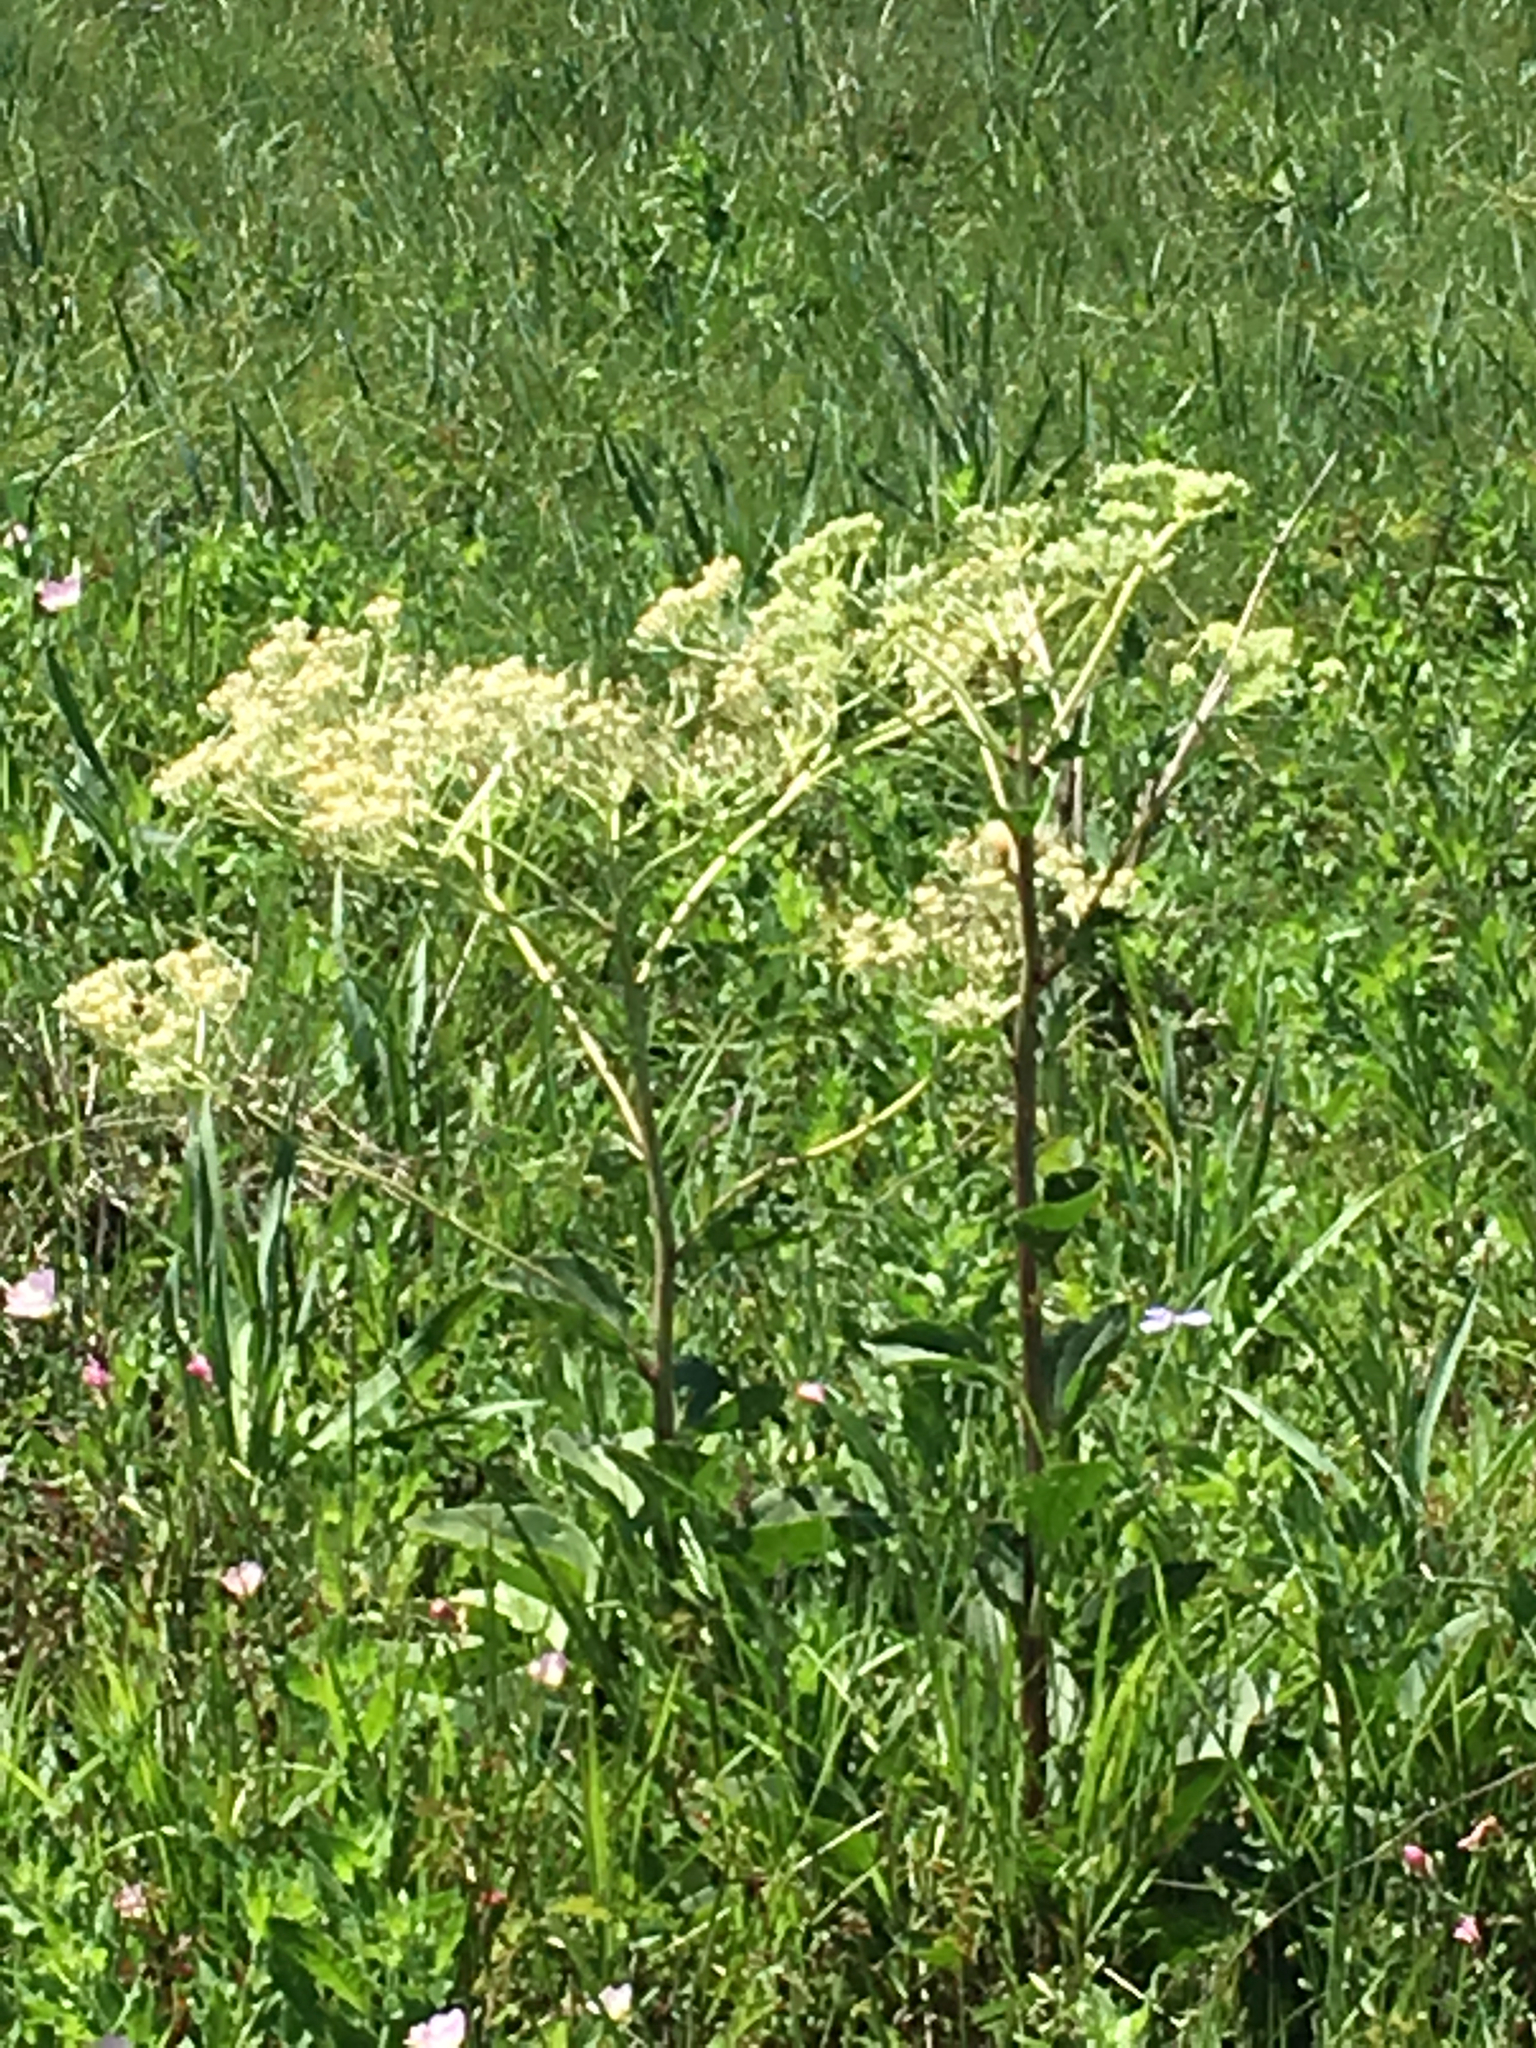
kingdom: Plantae
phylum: Tracheophyta
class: Magnoliopsida
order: Asterales
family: Asteraceae
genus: Arnoglossum
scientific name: Arnoglossum plantagineum
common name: Groove-stemmed indian-plantain
